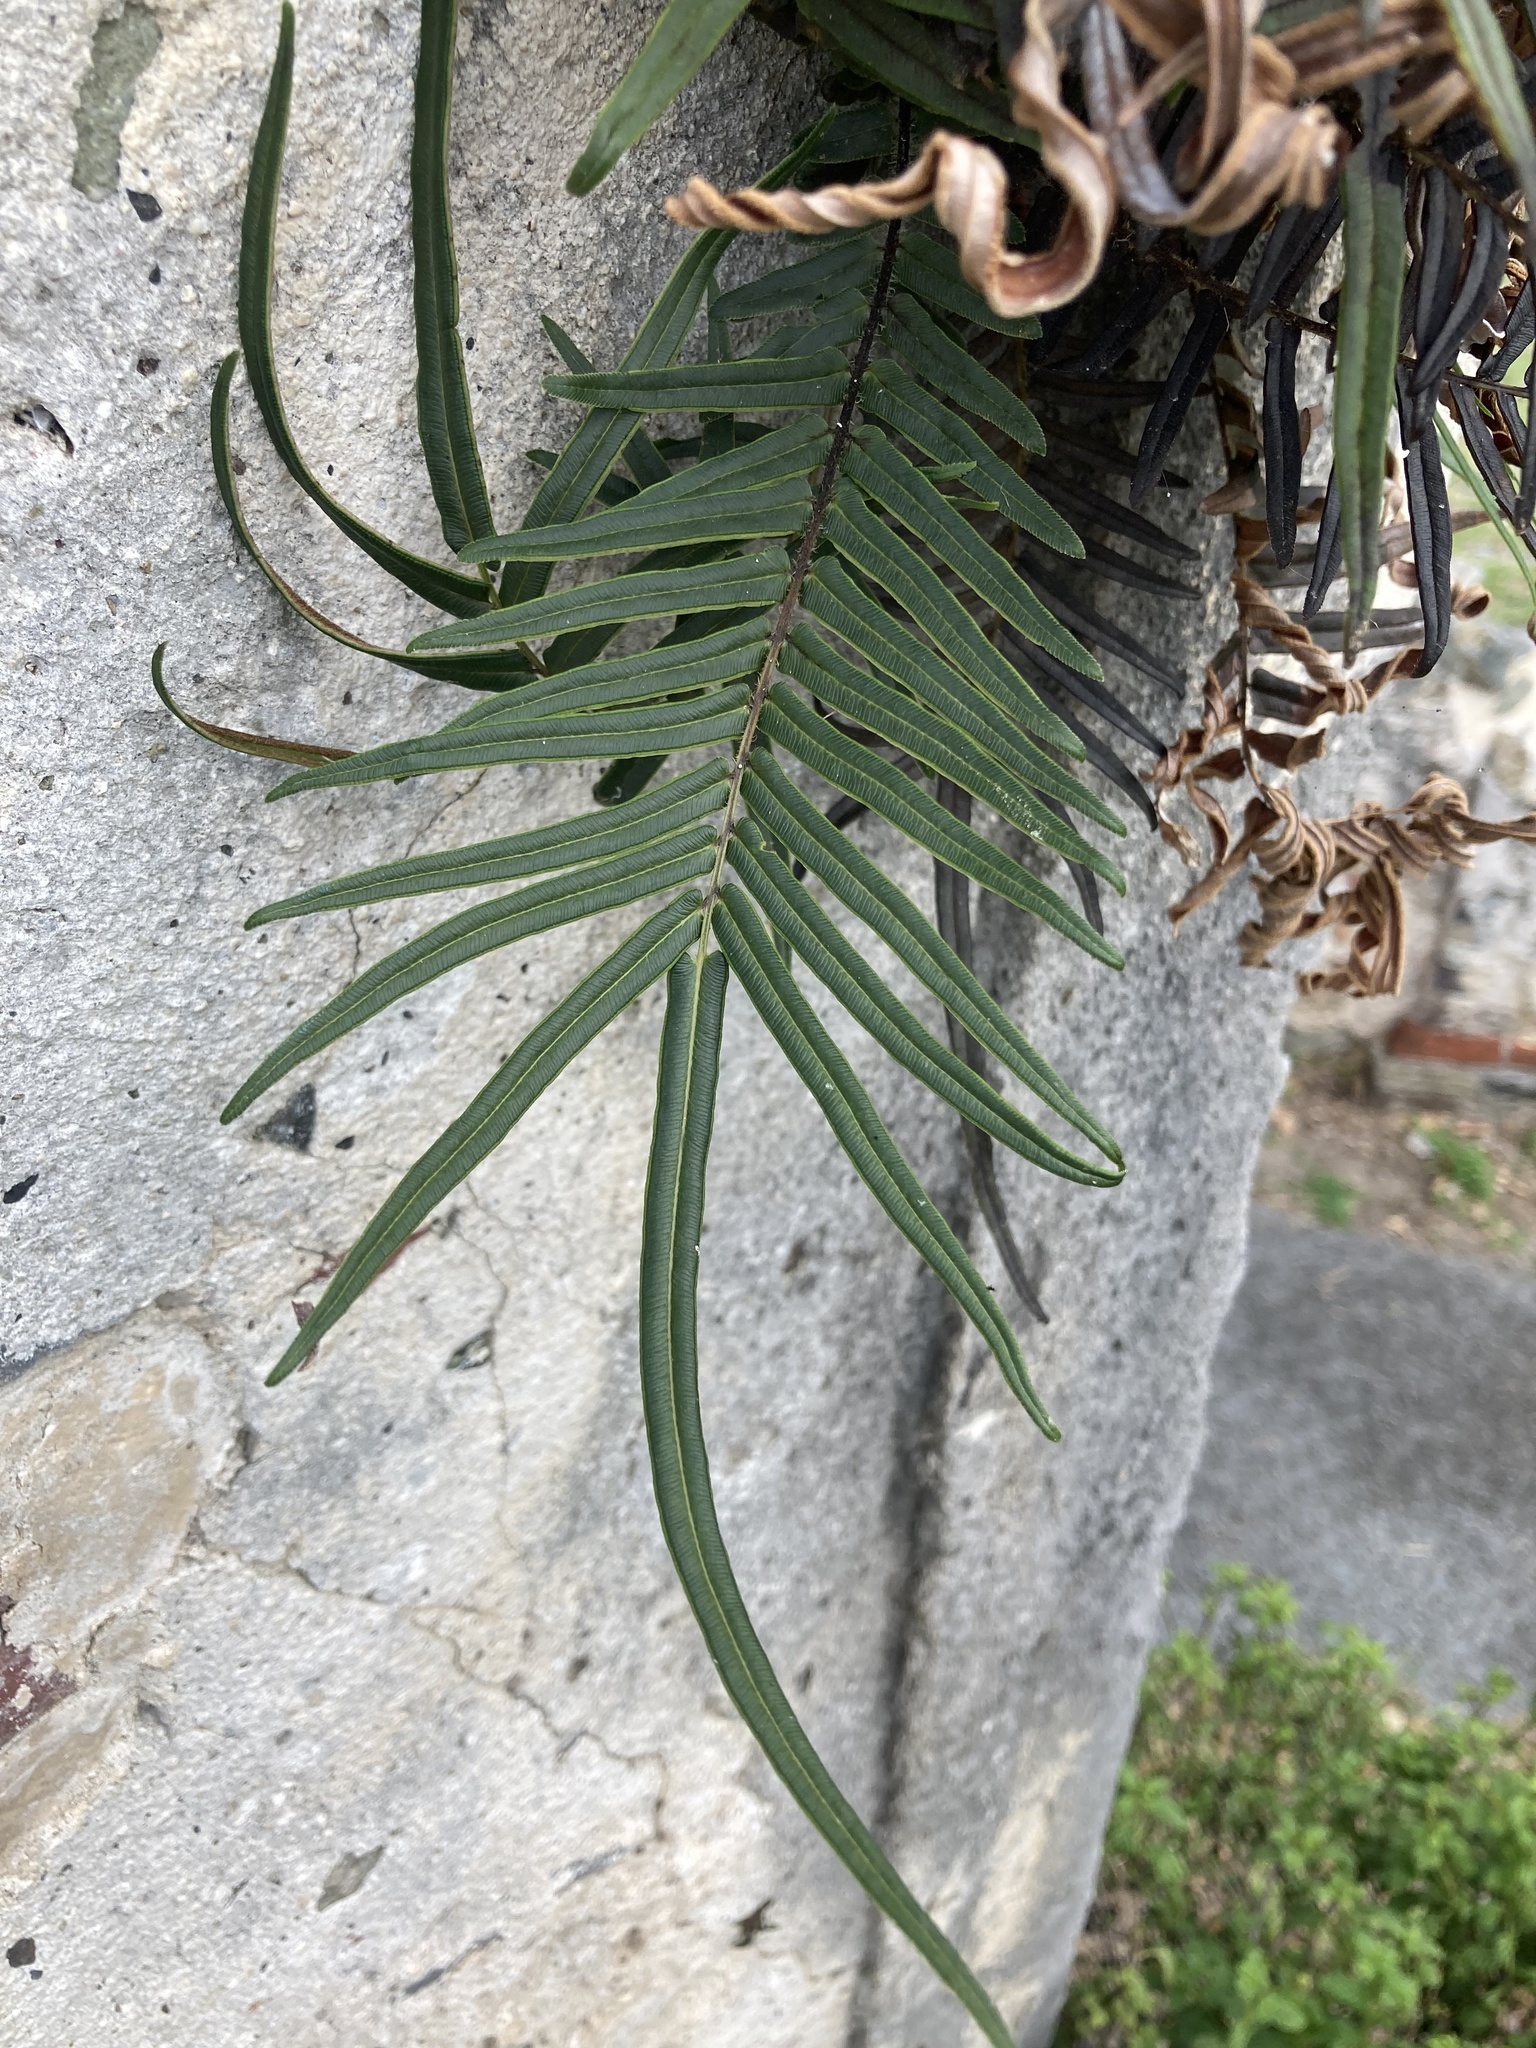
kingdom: Plantae
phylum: Tracheophyta
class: Polypodiopsida
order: Polypodiales
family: Pteridaceae
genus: Pteris
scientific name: Pteris vittata
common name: Ladder brake
